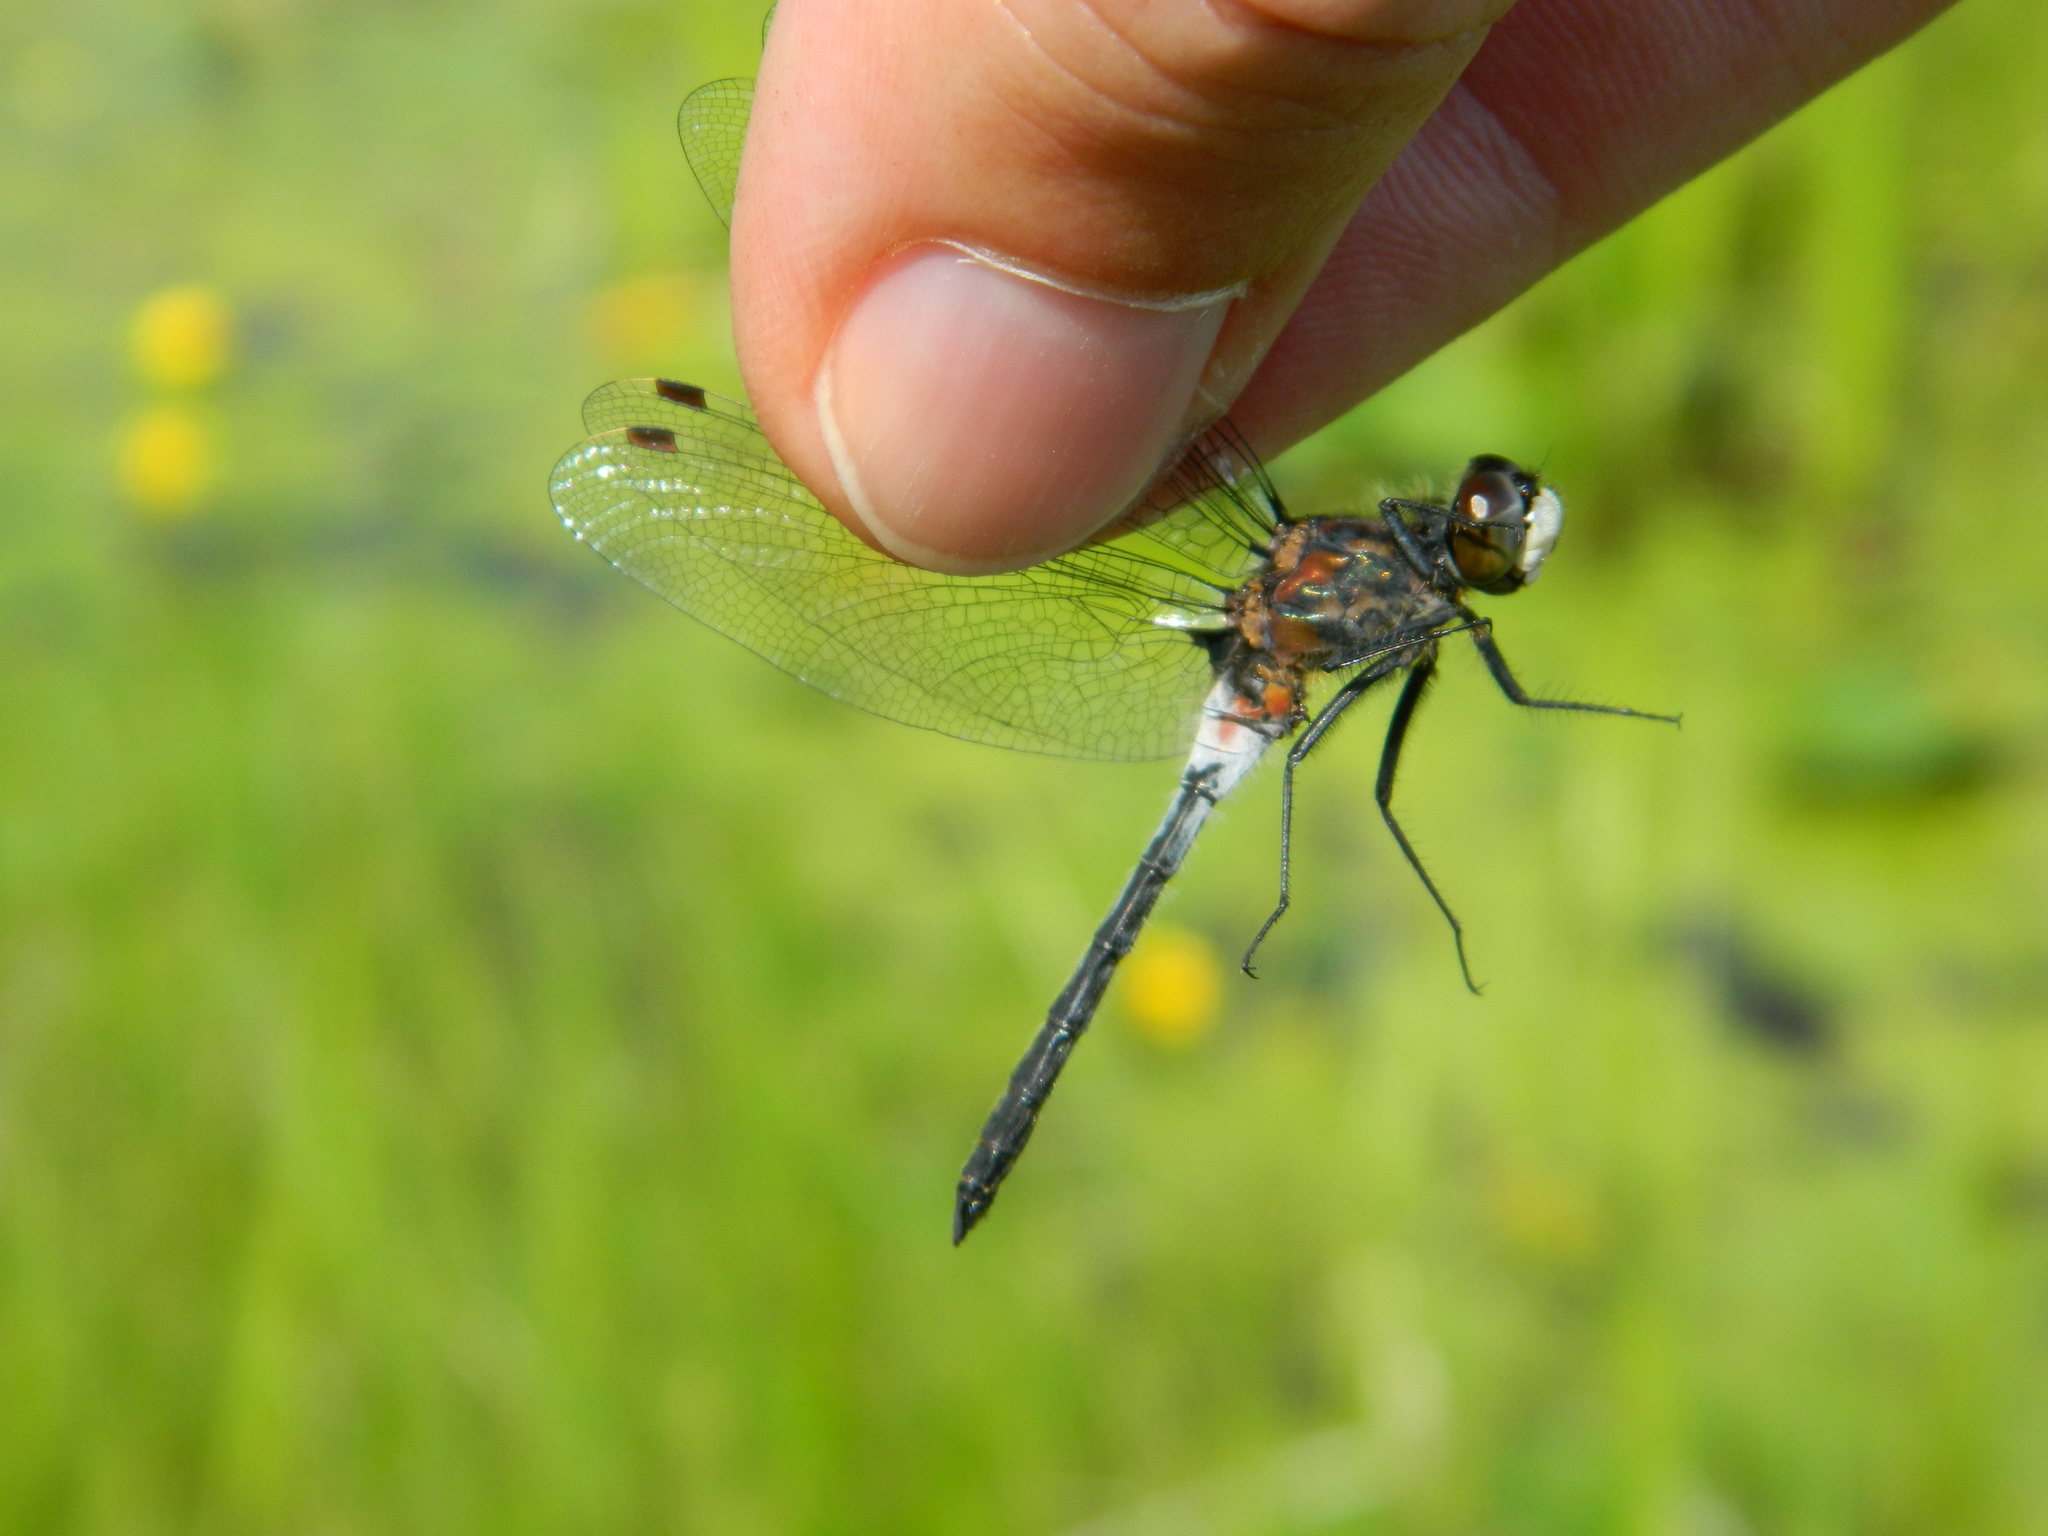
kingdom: Animalia
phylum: Arthropoda
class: Insecta
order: Odonata
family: Libellulidae
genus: Leucorrhinia
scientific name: Leucorrhinia proxima
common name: Belted whiteface
